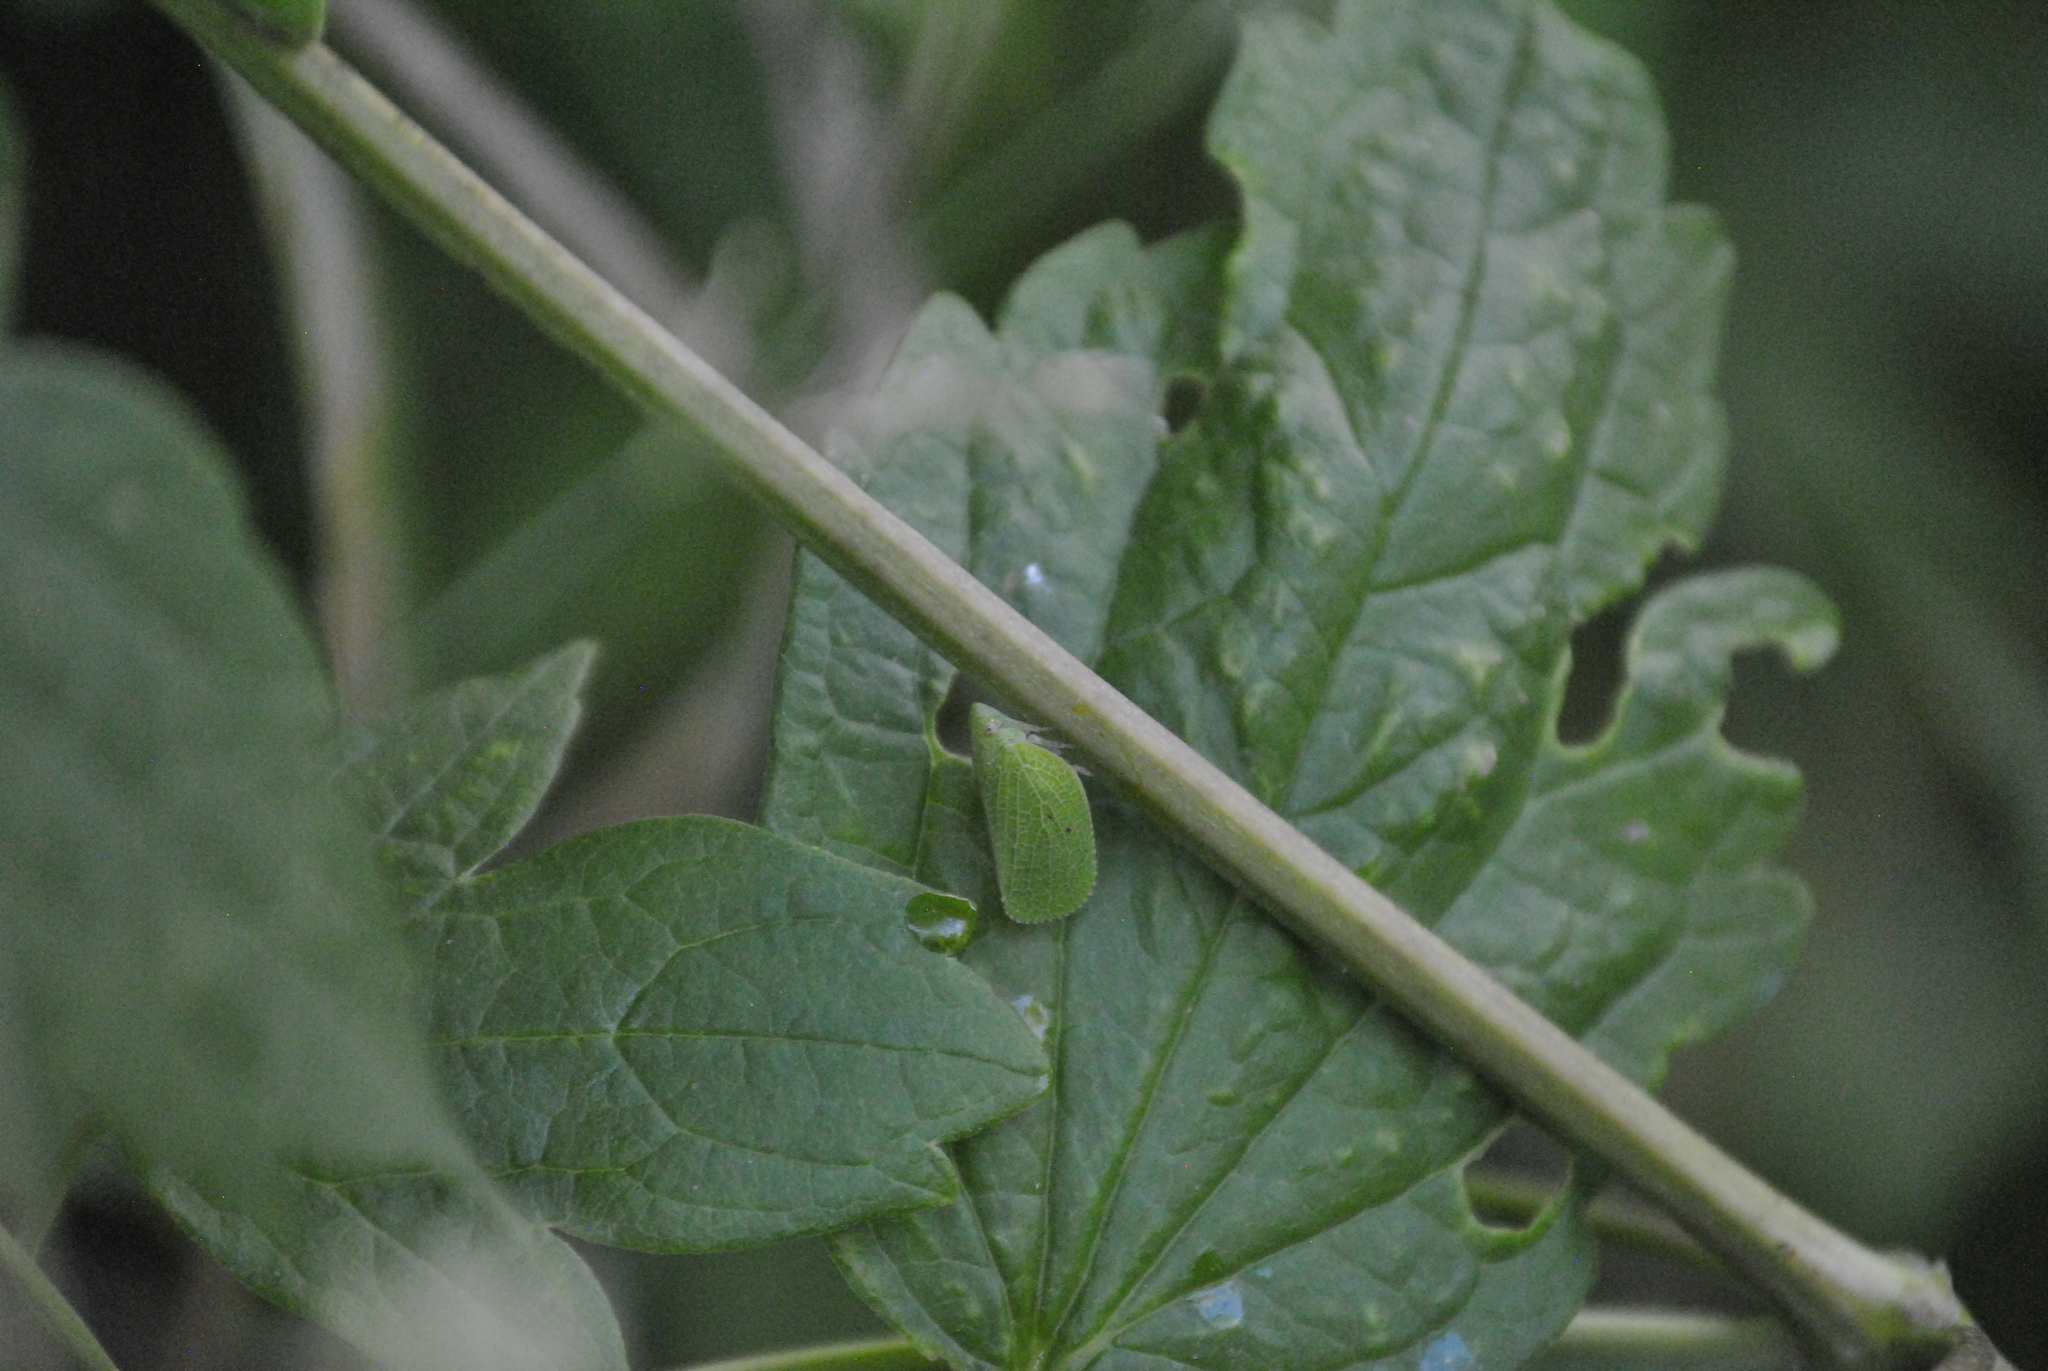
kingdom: Animalia
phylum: Arthropoda
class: Insecta
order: Hemiptera
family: Acanaloniidae
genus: Acanalonia
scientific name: Acanalonia conica
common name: Green cone-headed planthopper
